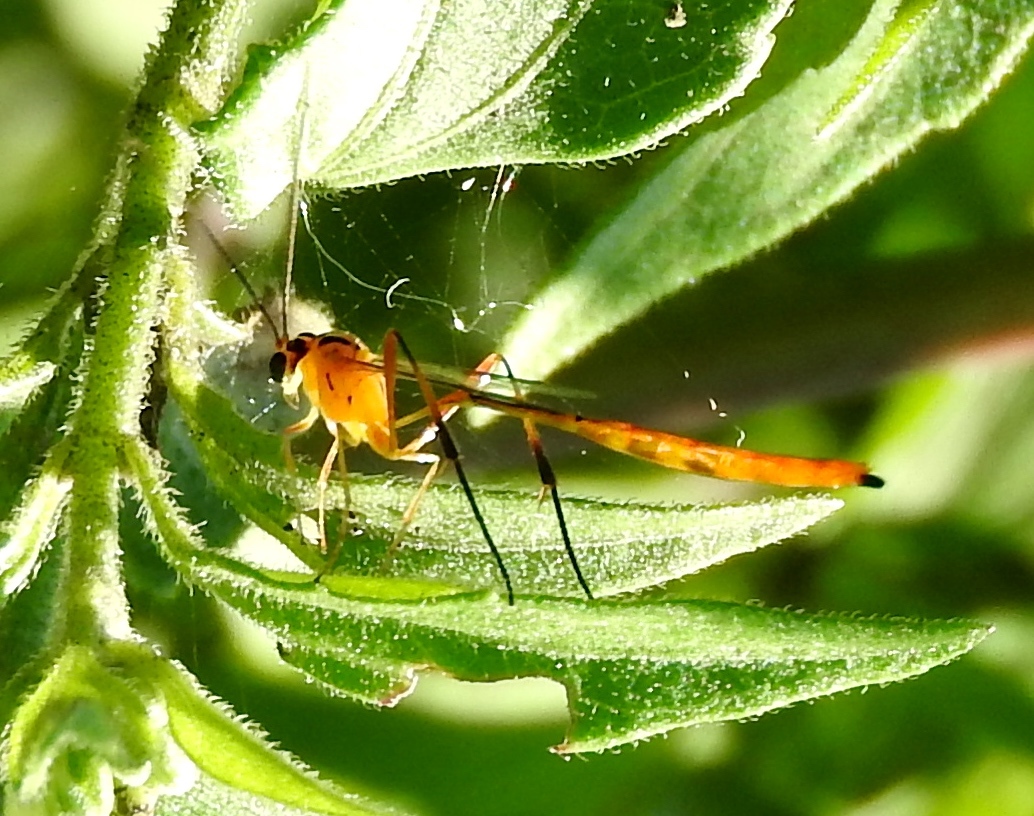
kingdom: Animalia
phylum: Arthropoda
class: Insecta
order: Hymenoptera
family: Ichneumonidae
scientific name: Ichneumonidae
